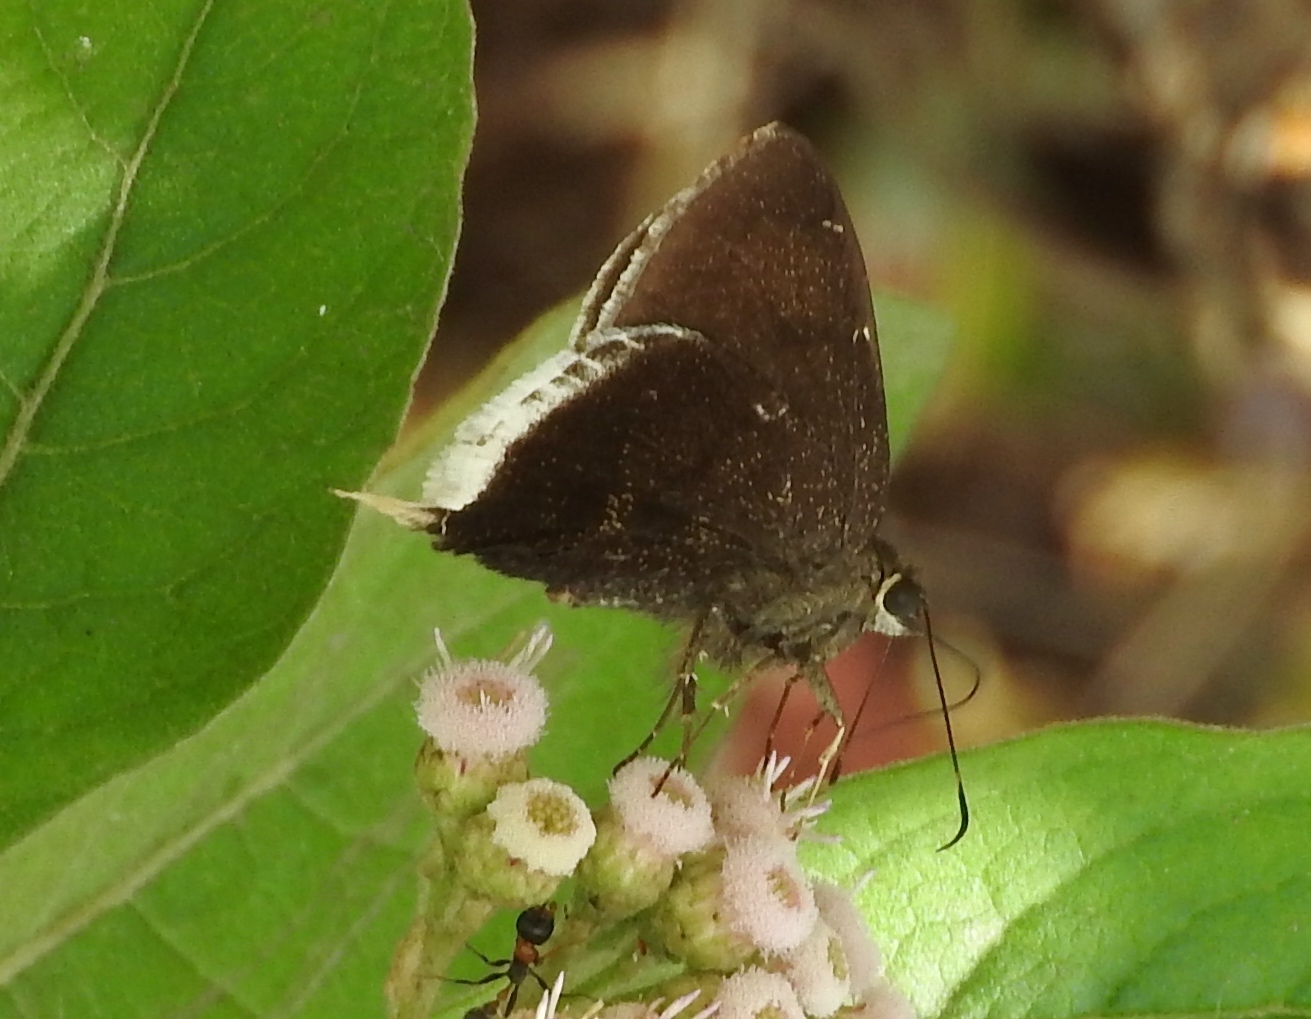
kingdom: Animalia
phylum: Arthropoda
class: Insecta
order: Lepidoptera
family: Hesperiidae
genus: Achalarus
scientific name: Achalarus
